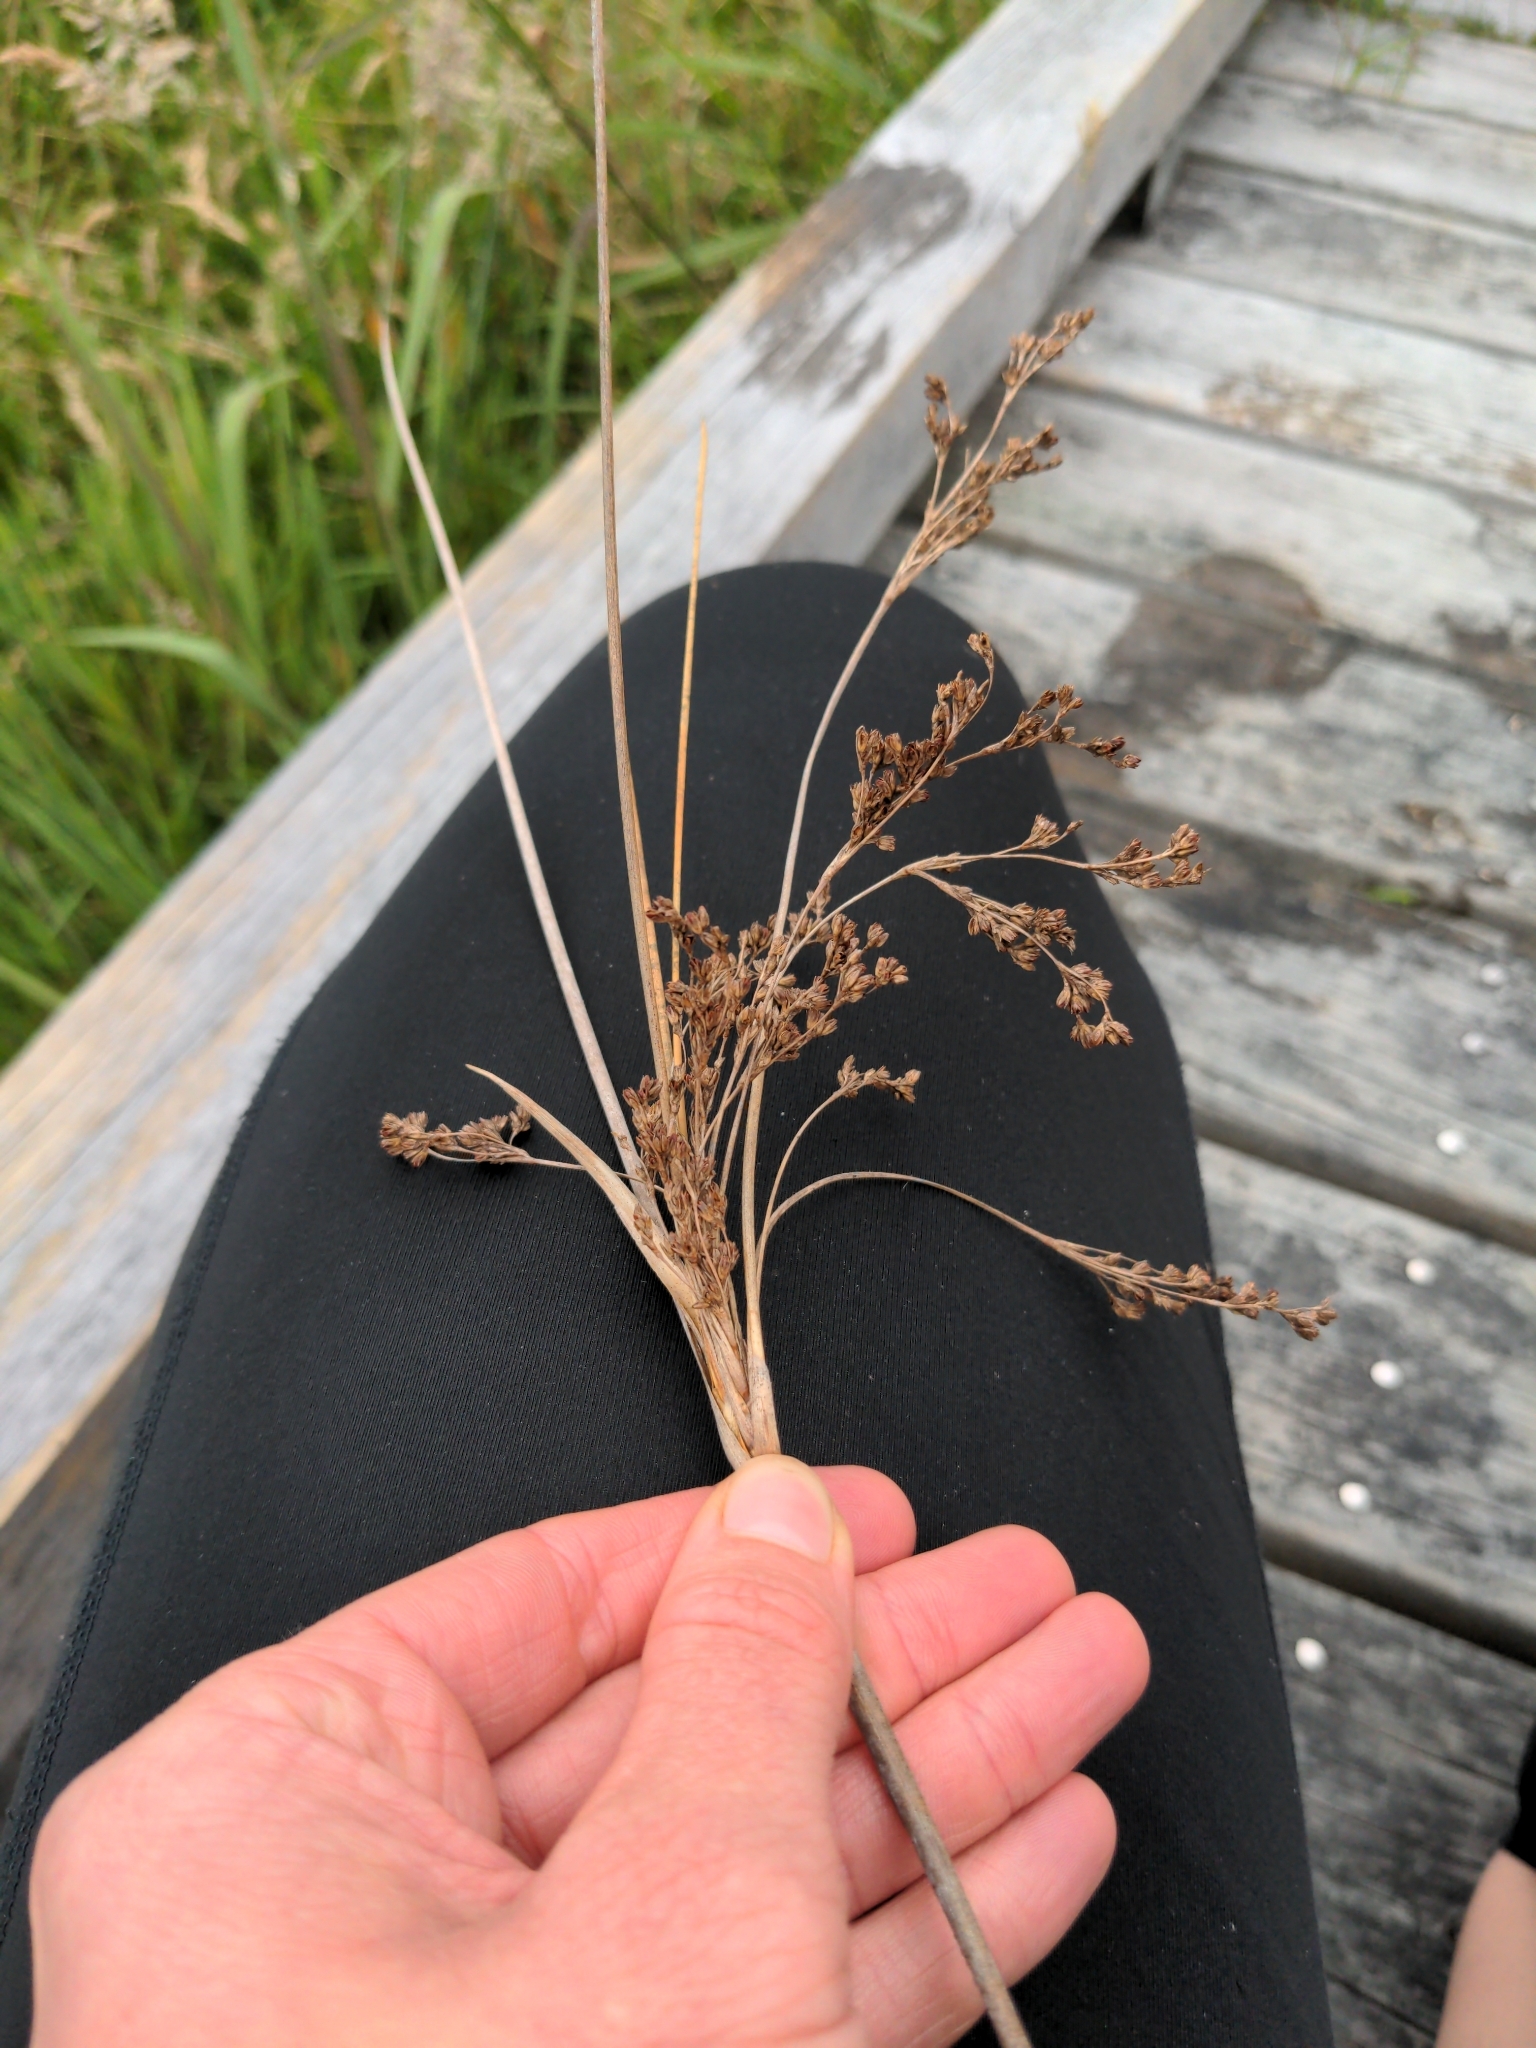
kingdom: Plantae
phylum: Tracheophyta
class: Liliopsida
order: Poales
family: Juncaceae
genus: Juncus
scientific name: Juncus kraussii
